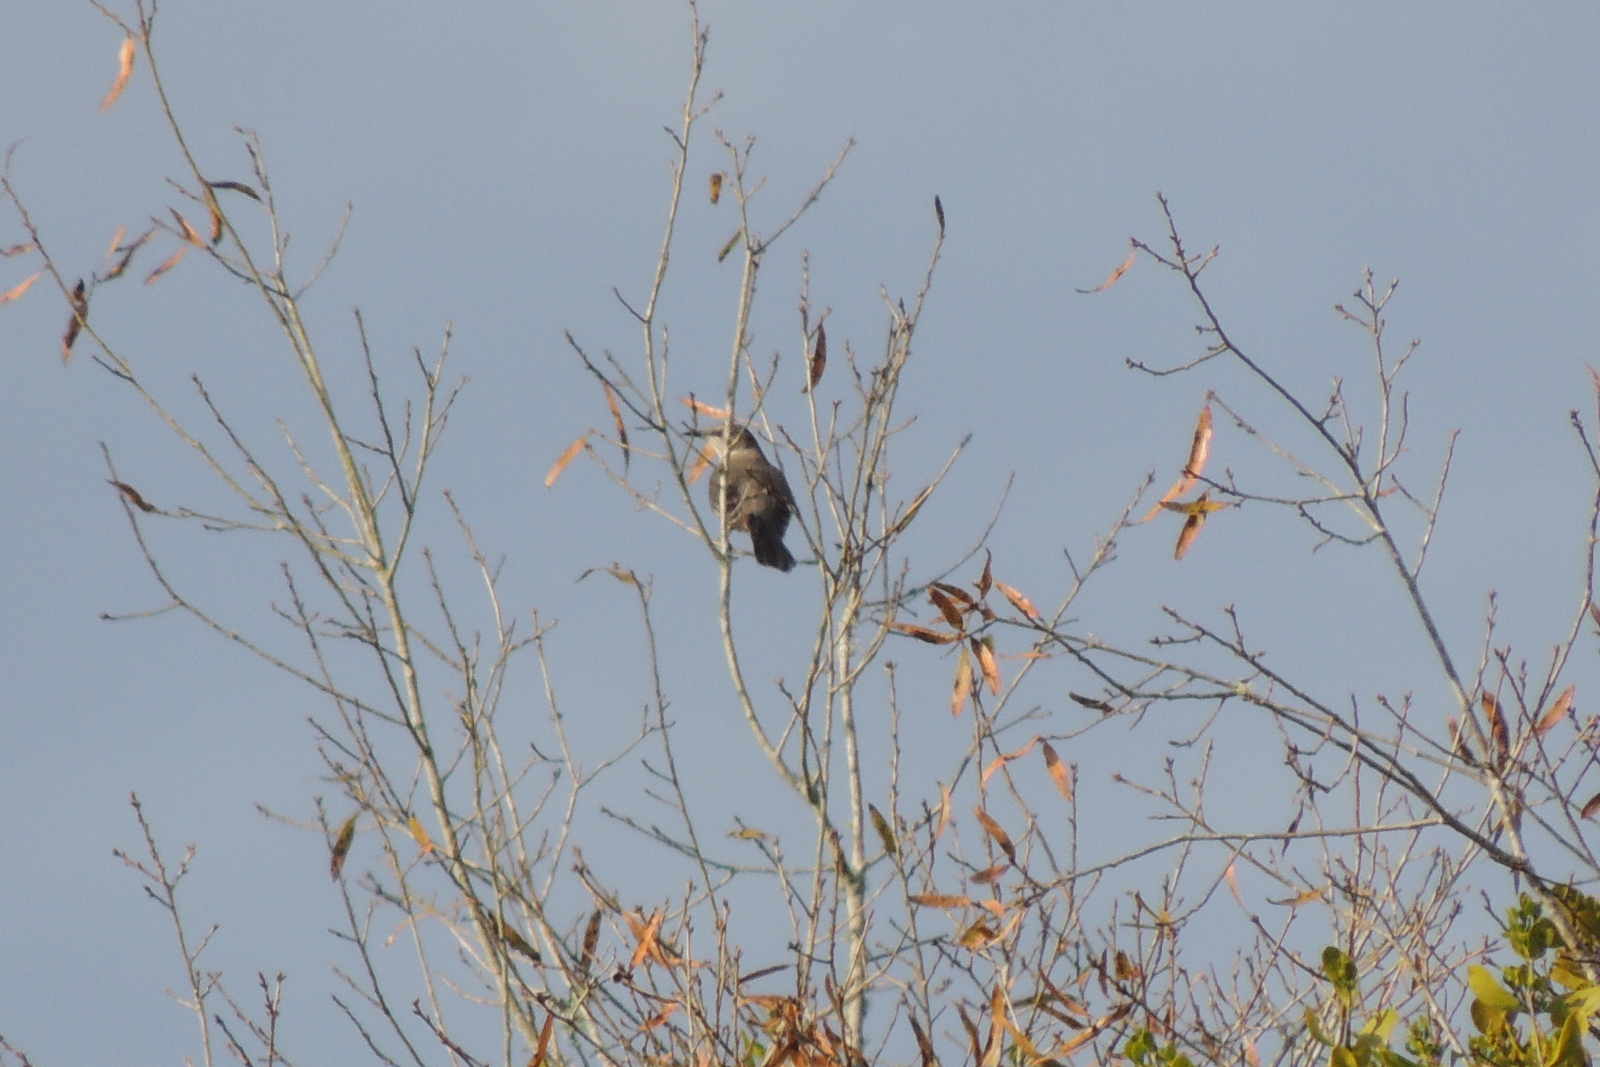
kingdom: Animalia
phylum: Chordata
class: Aves
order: Passeriformes
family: Mimidae
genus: Mimus
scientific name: Mimus polyglottos
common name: Northern mockingbird
